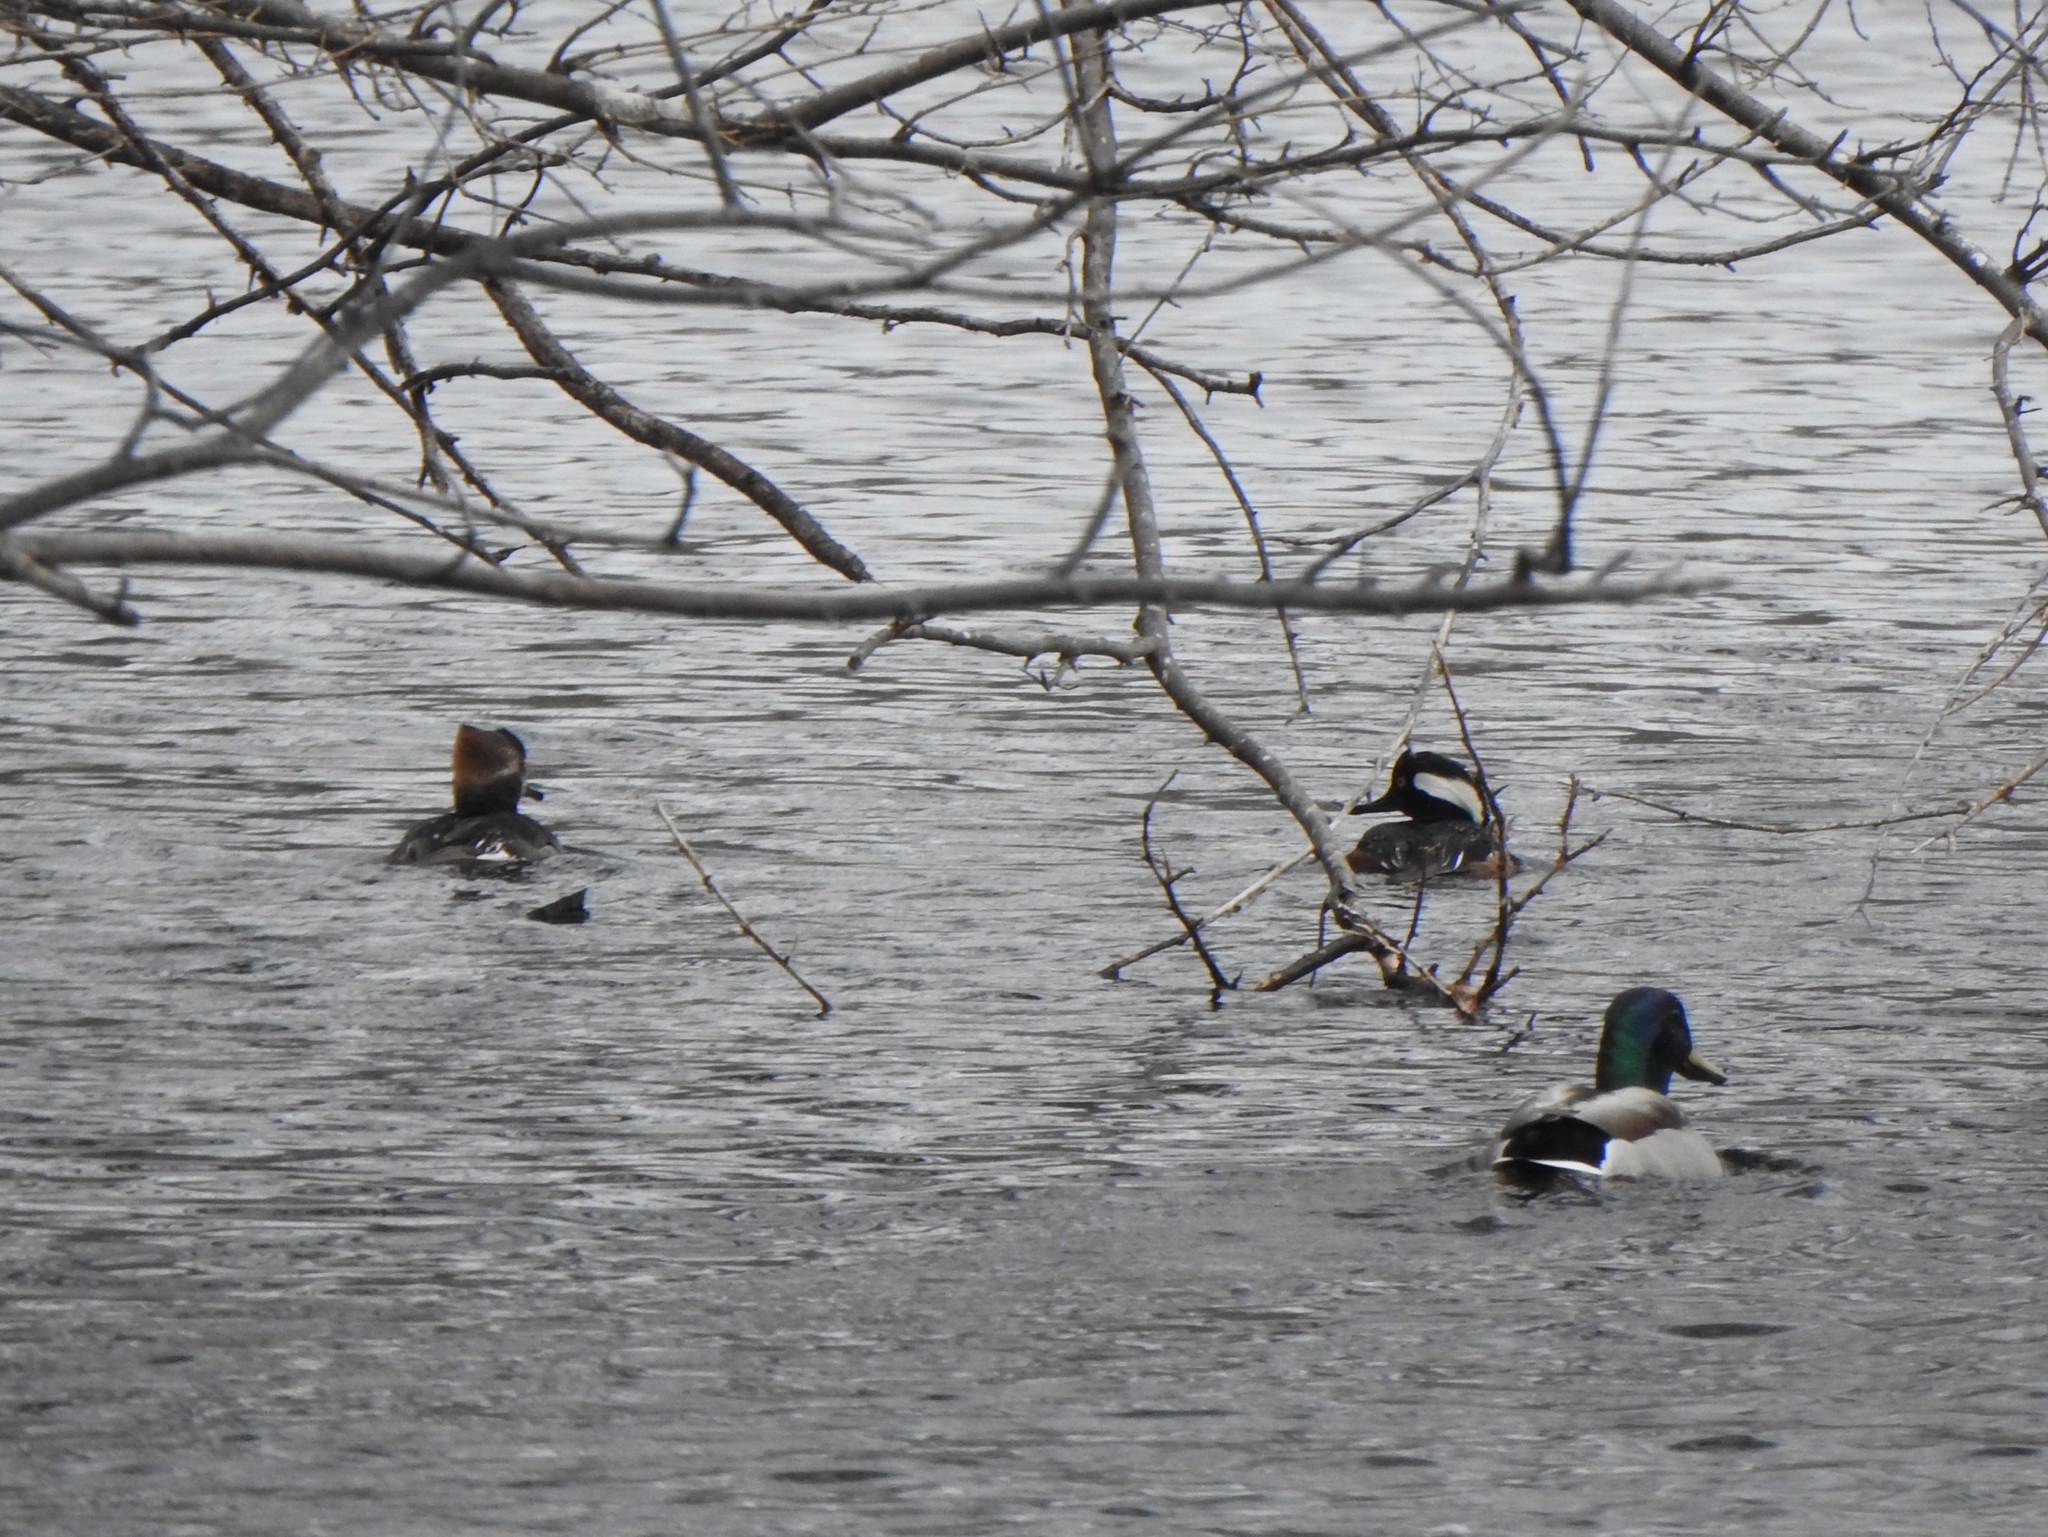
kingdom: Animalia
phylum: Chordata
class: Aves
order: Anseriformes
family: Anatidae
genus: Lophodytes
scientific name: Lophodytes cucullatus
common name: Hooded merganser
